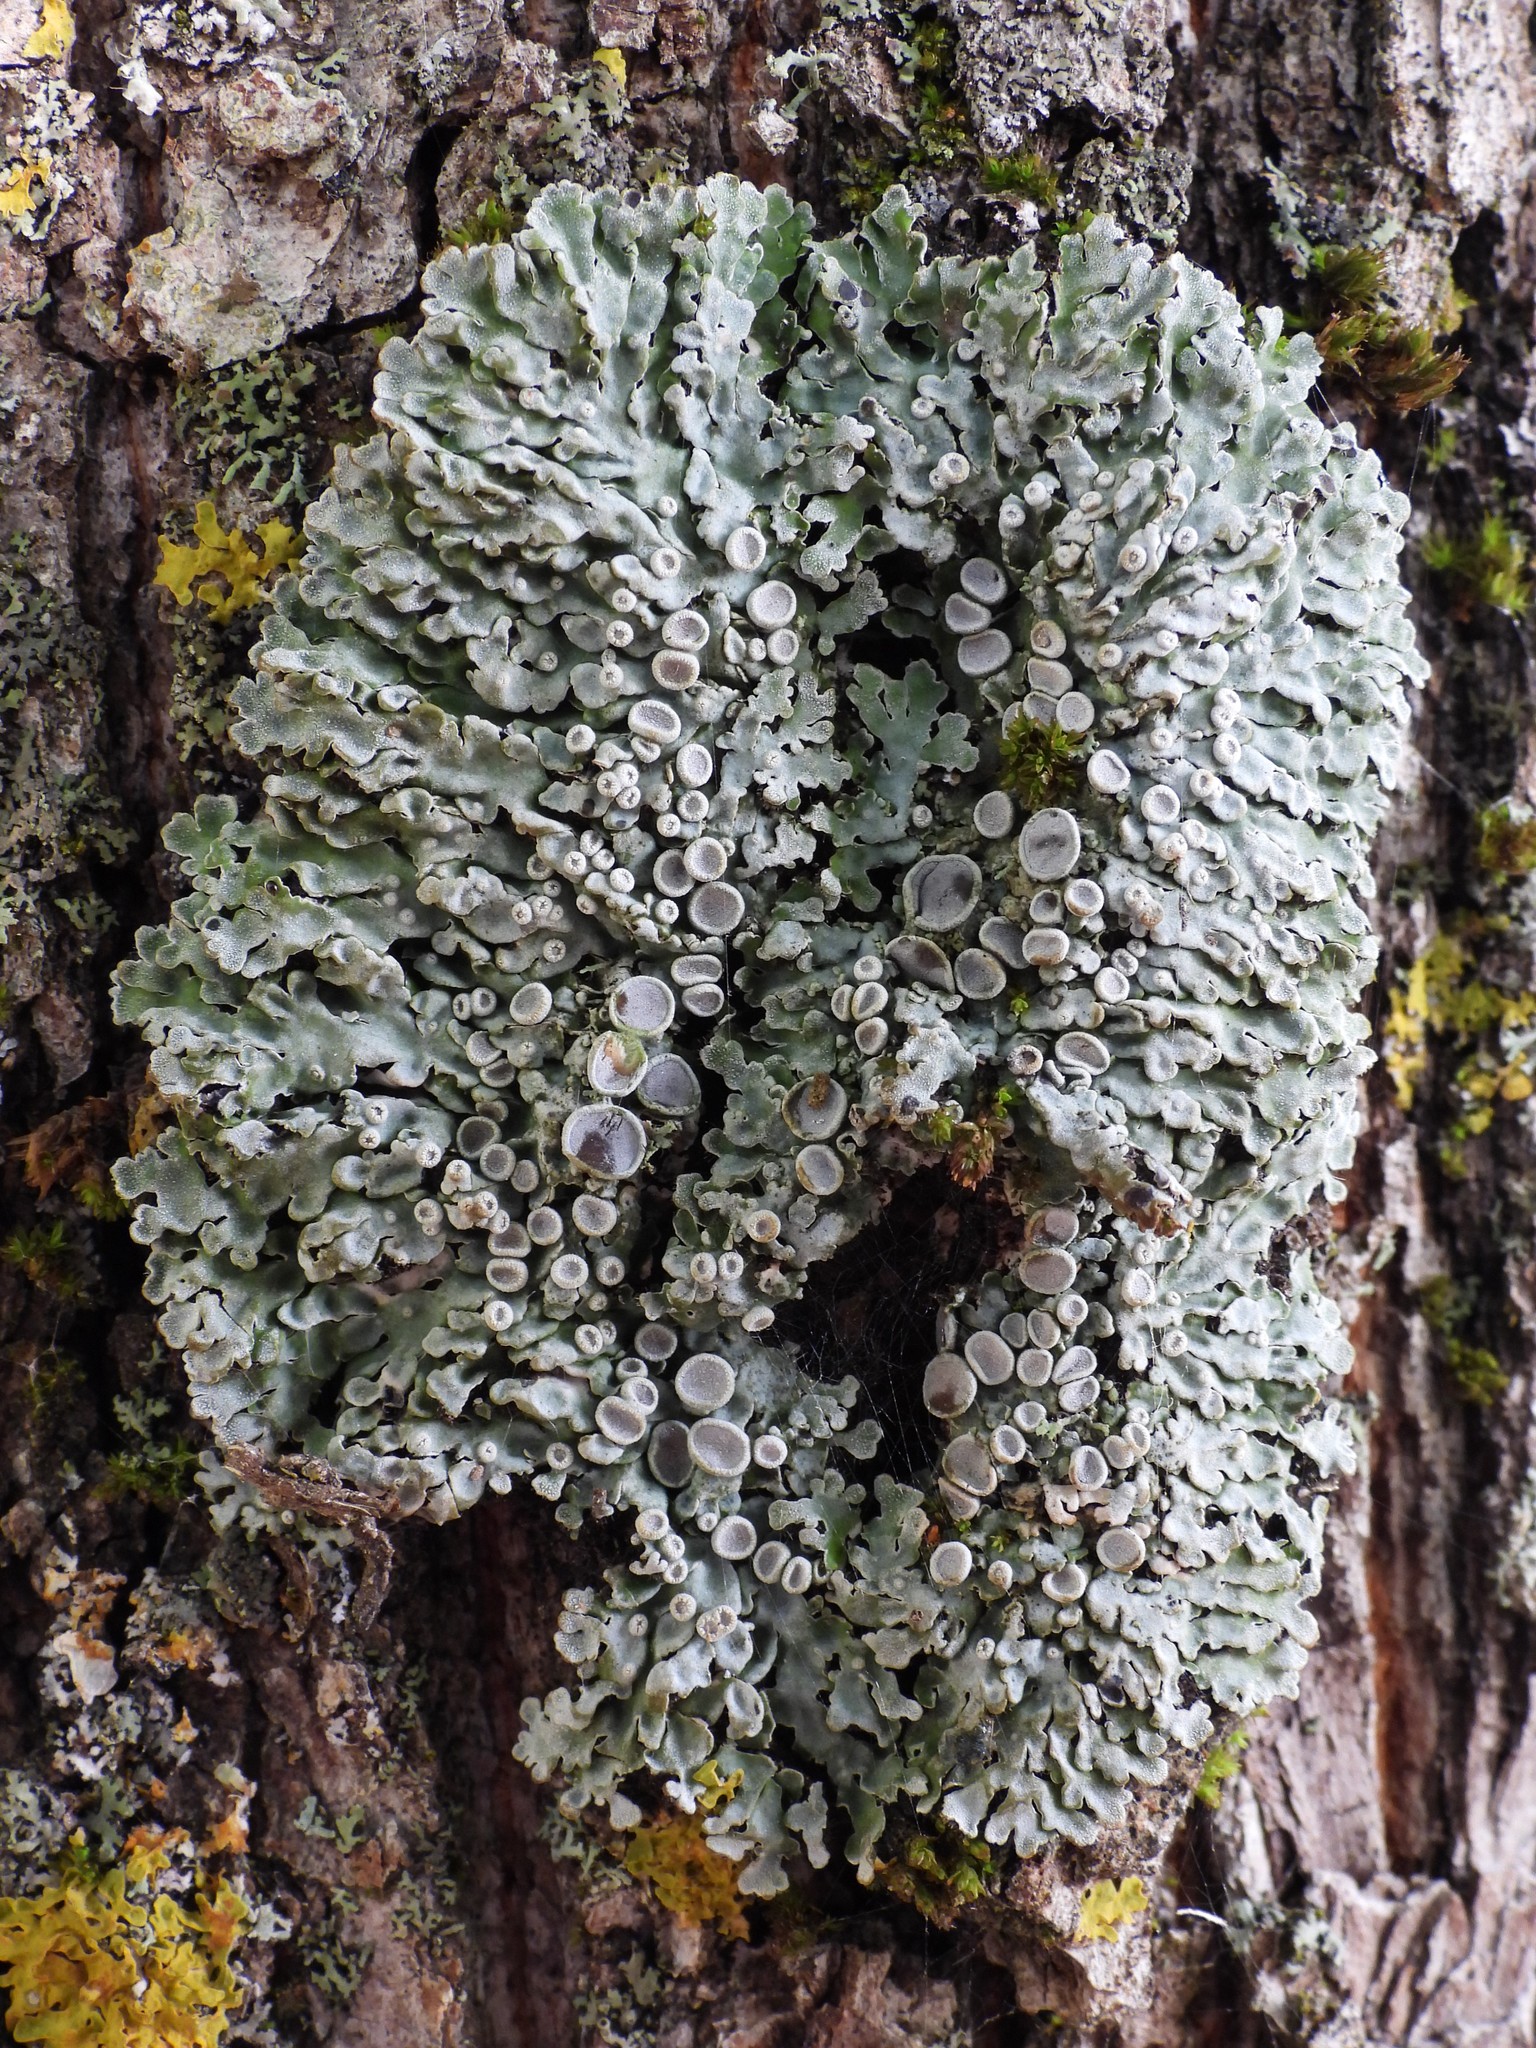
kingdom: Fungi
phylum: Ascomycota
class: Lecanoromycetes
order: Caliciales
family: Physciaceae
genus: Physconia
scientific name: Physconia distorta
